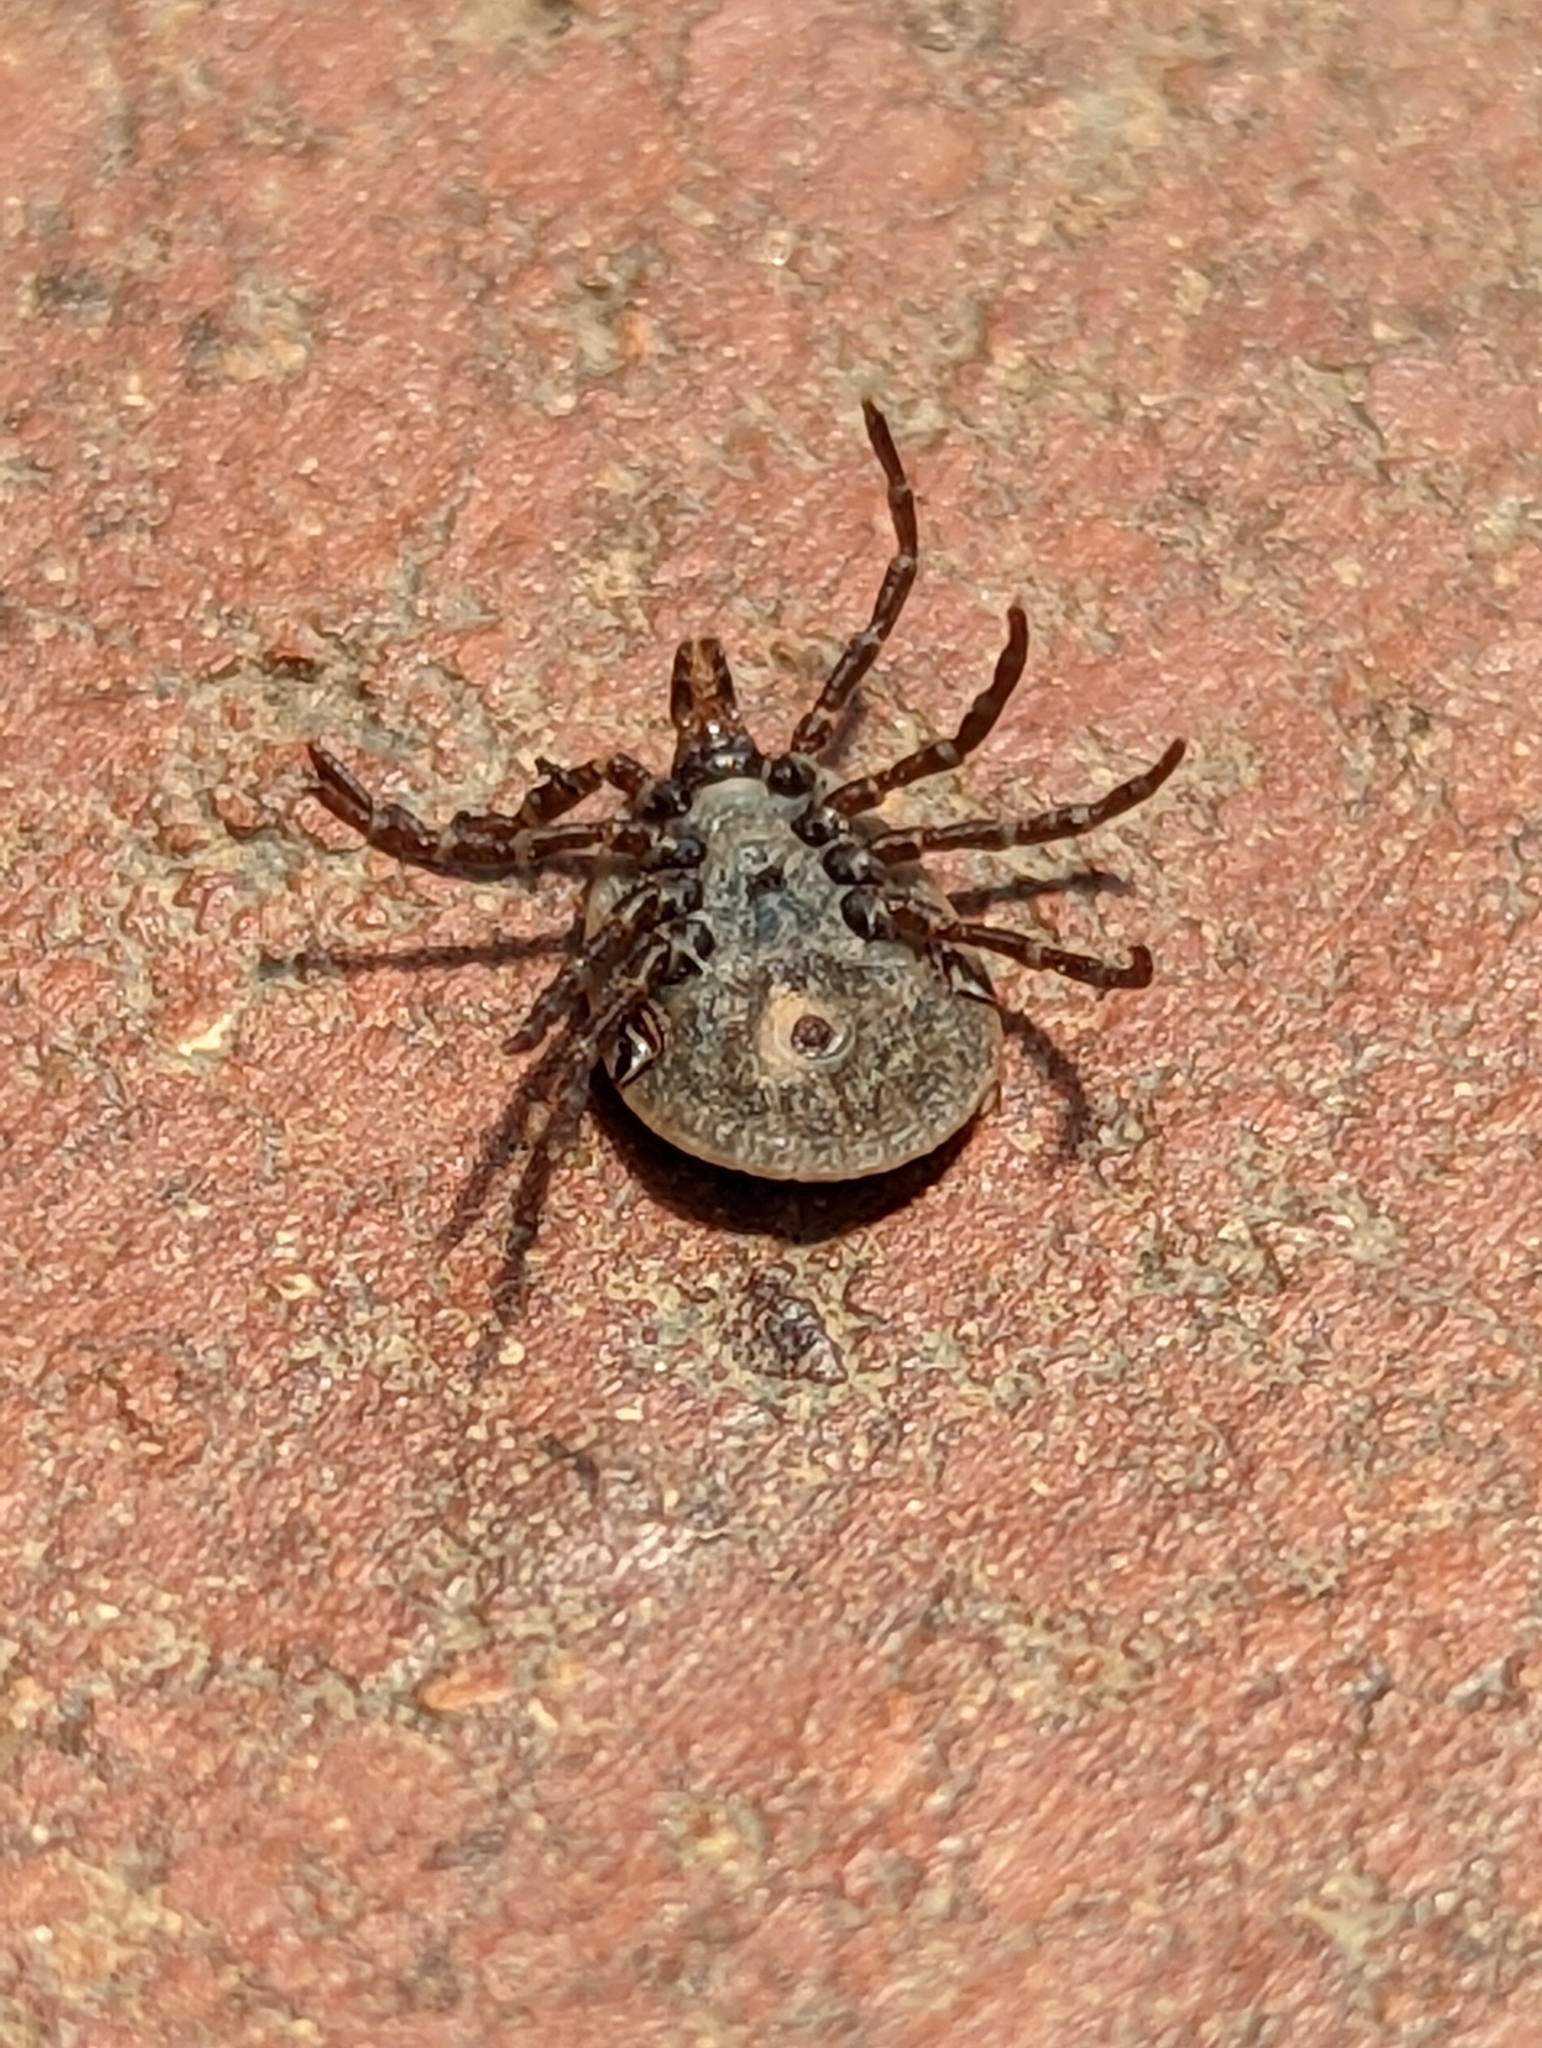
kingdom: Animalia
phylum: Arthropoda
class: Arachnida
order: Ixodida
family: Ixodidae
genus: Amblyomma
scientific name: Amblyomma triguttatum
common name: Kangaroo hard tick
